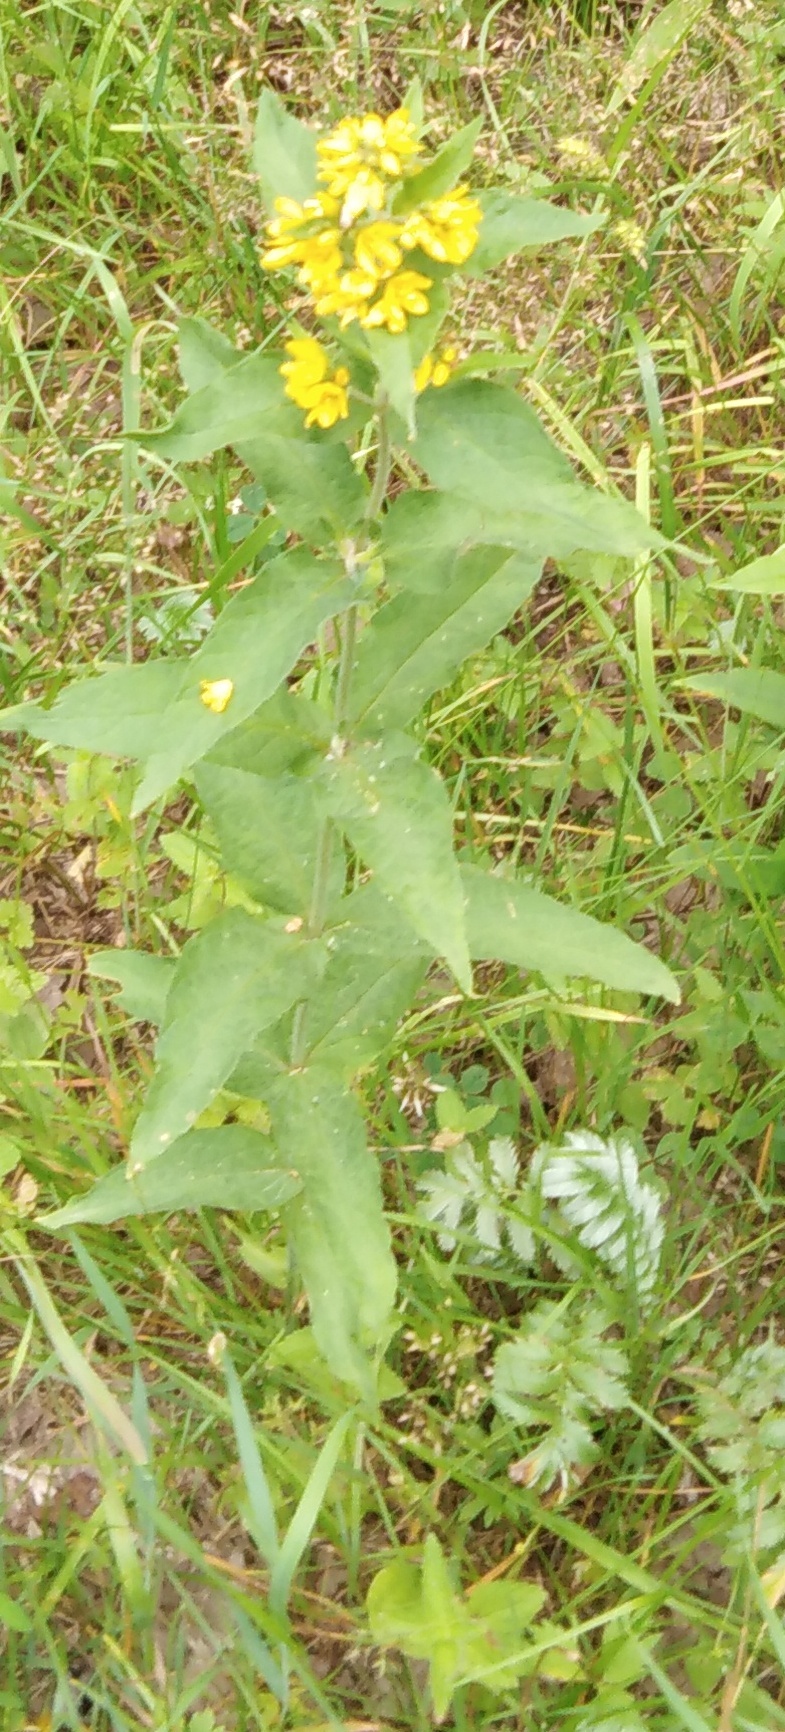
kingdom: Plantae
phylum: Tracheophyta
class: Magnoliopsida
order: Ericales
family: Primulaceae
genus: Lysimachia
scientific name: Lysimachia vulgaris
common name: Yellow loosestrife
